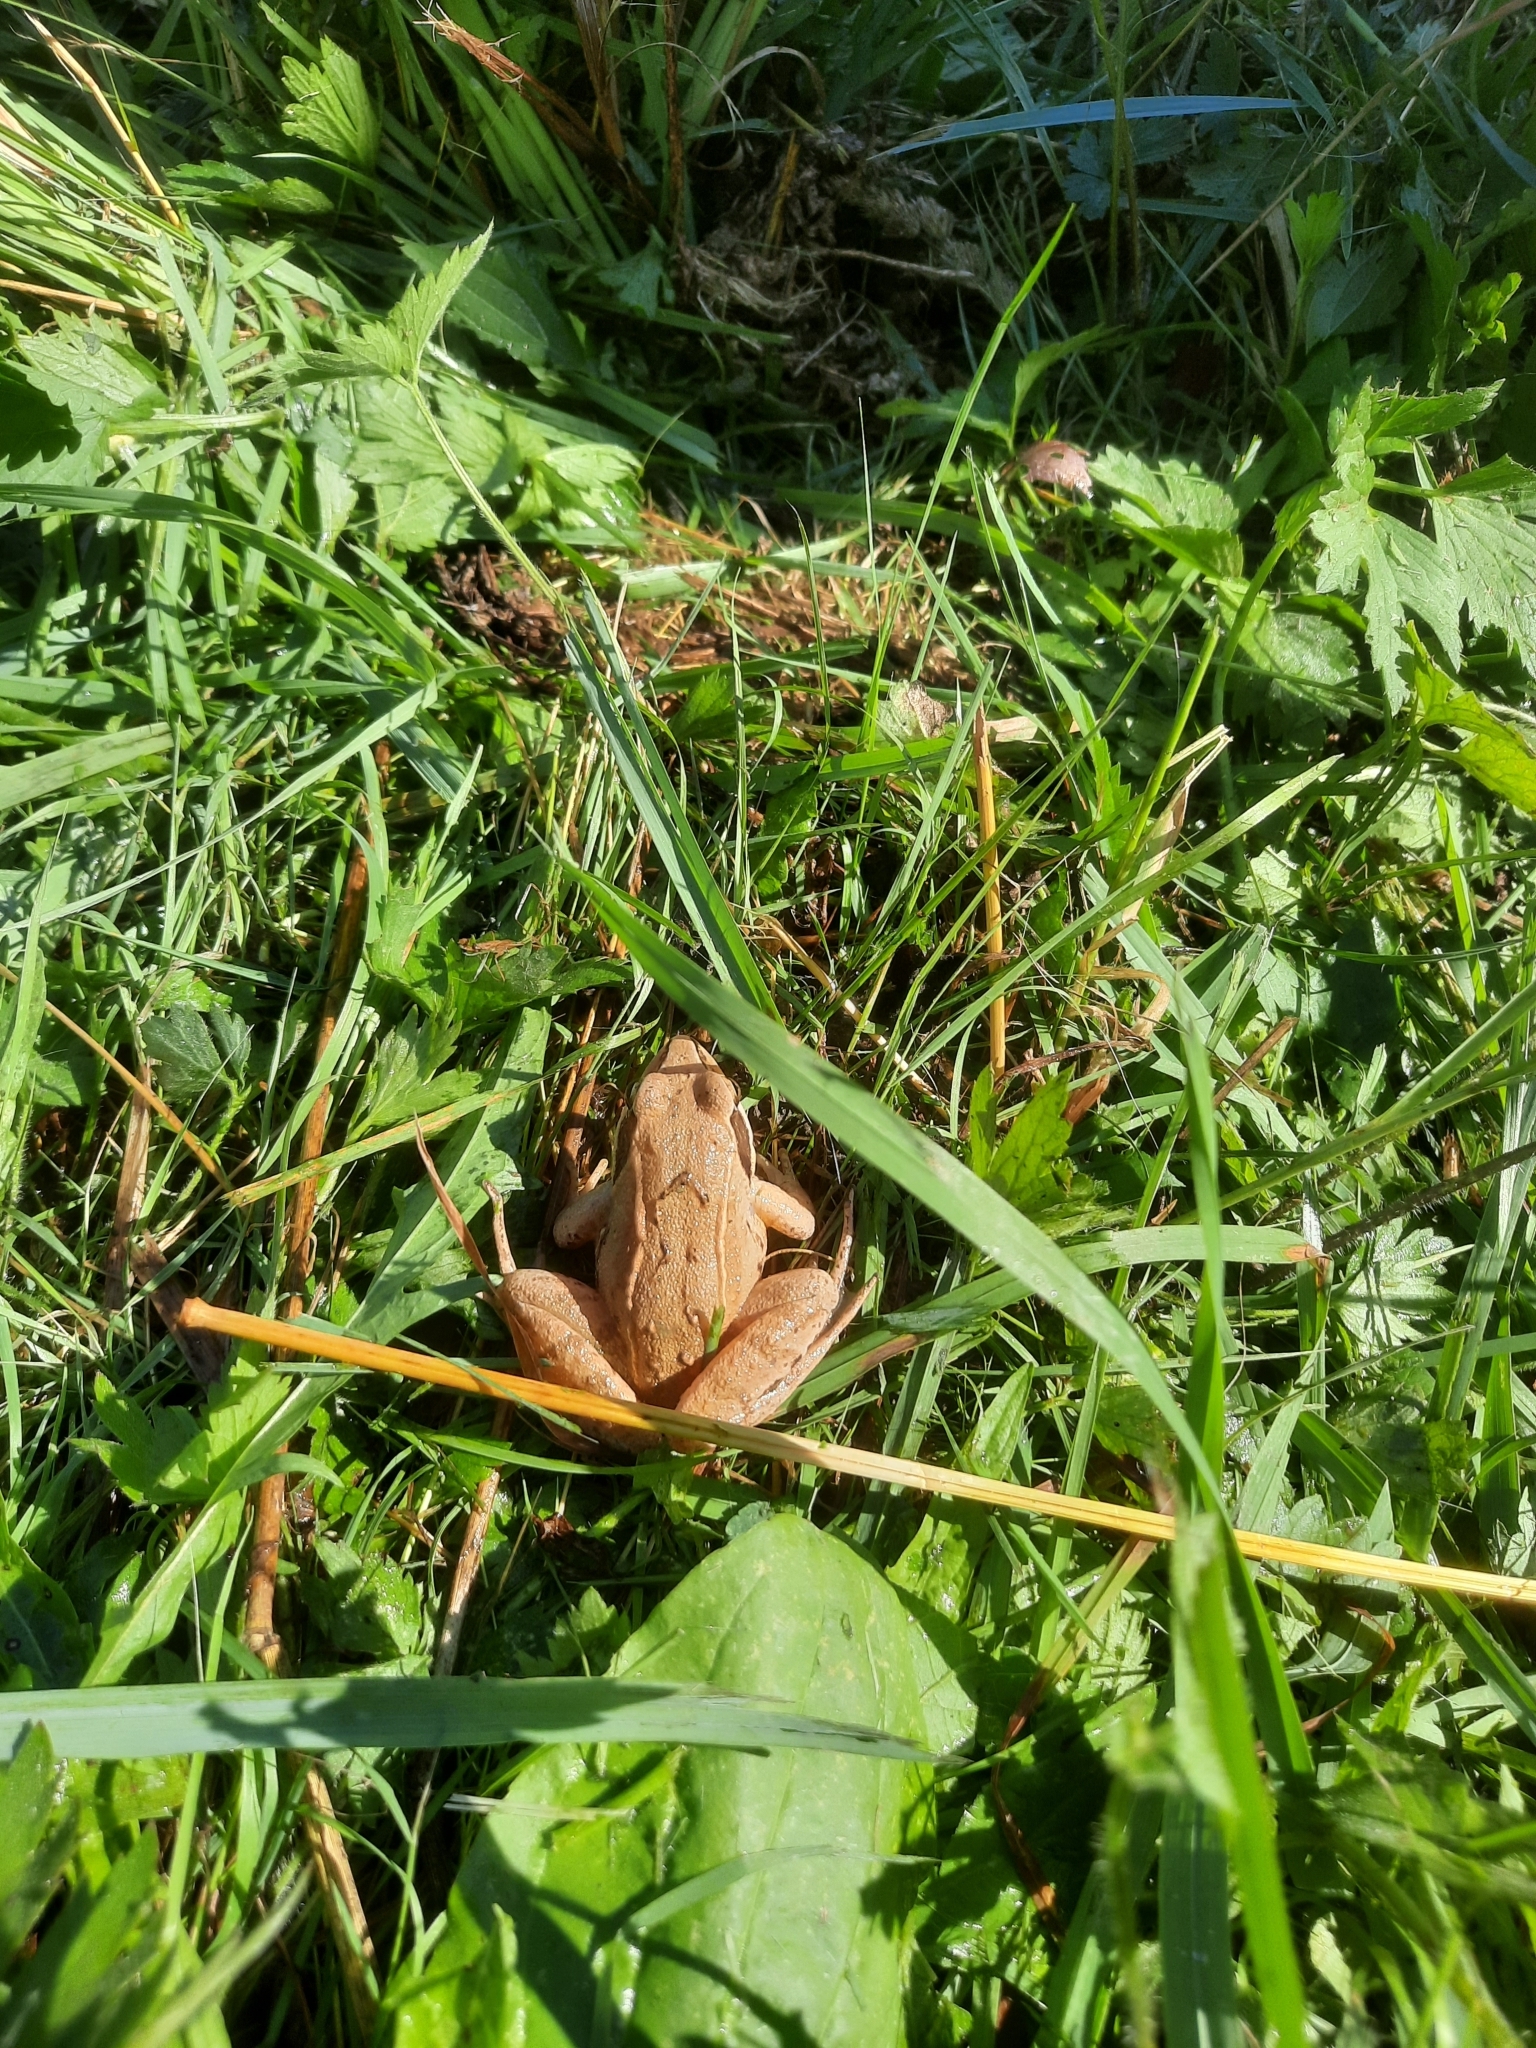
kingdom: Animalia
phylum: Chordata
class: Amphibia
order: Anura
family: Ranidae
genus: Rana
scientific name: Rana arvalis
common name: Moor frog
